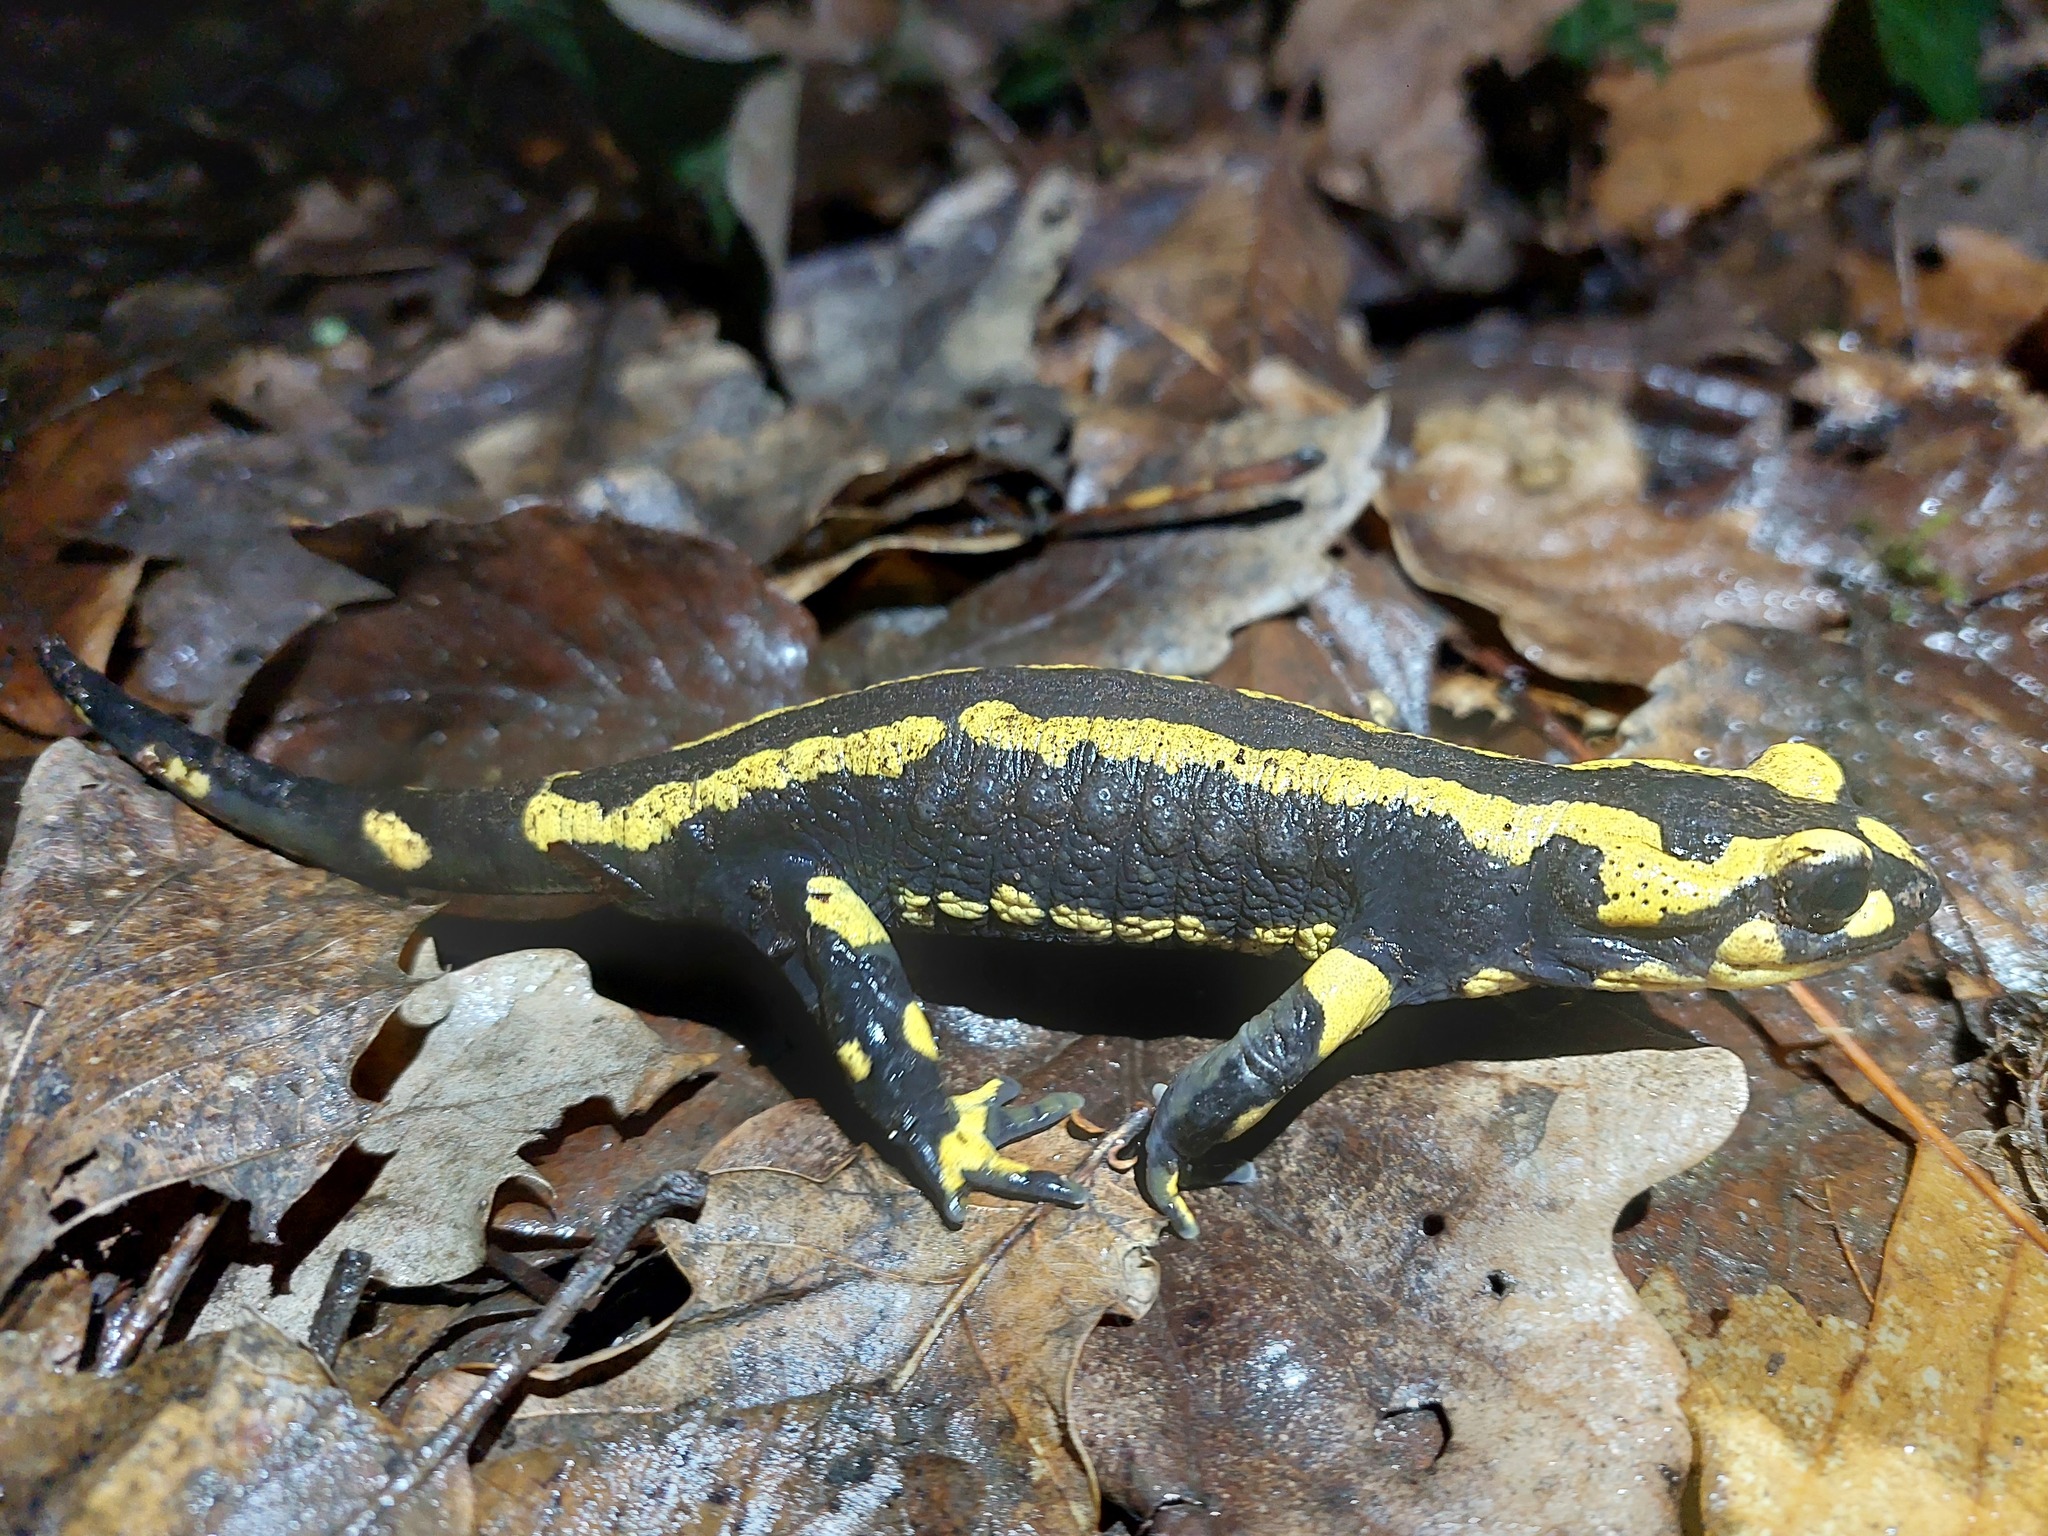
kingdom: Animalia
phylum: Chordata
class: Amphibia
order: Caudata
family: Salamandridae
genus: Salamandra
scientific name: Salamandra salamandra
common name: Fire salamander
